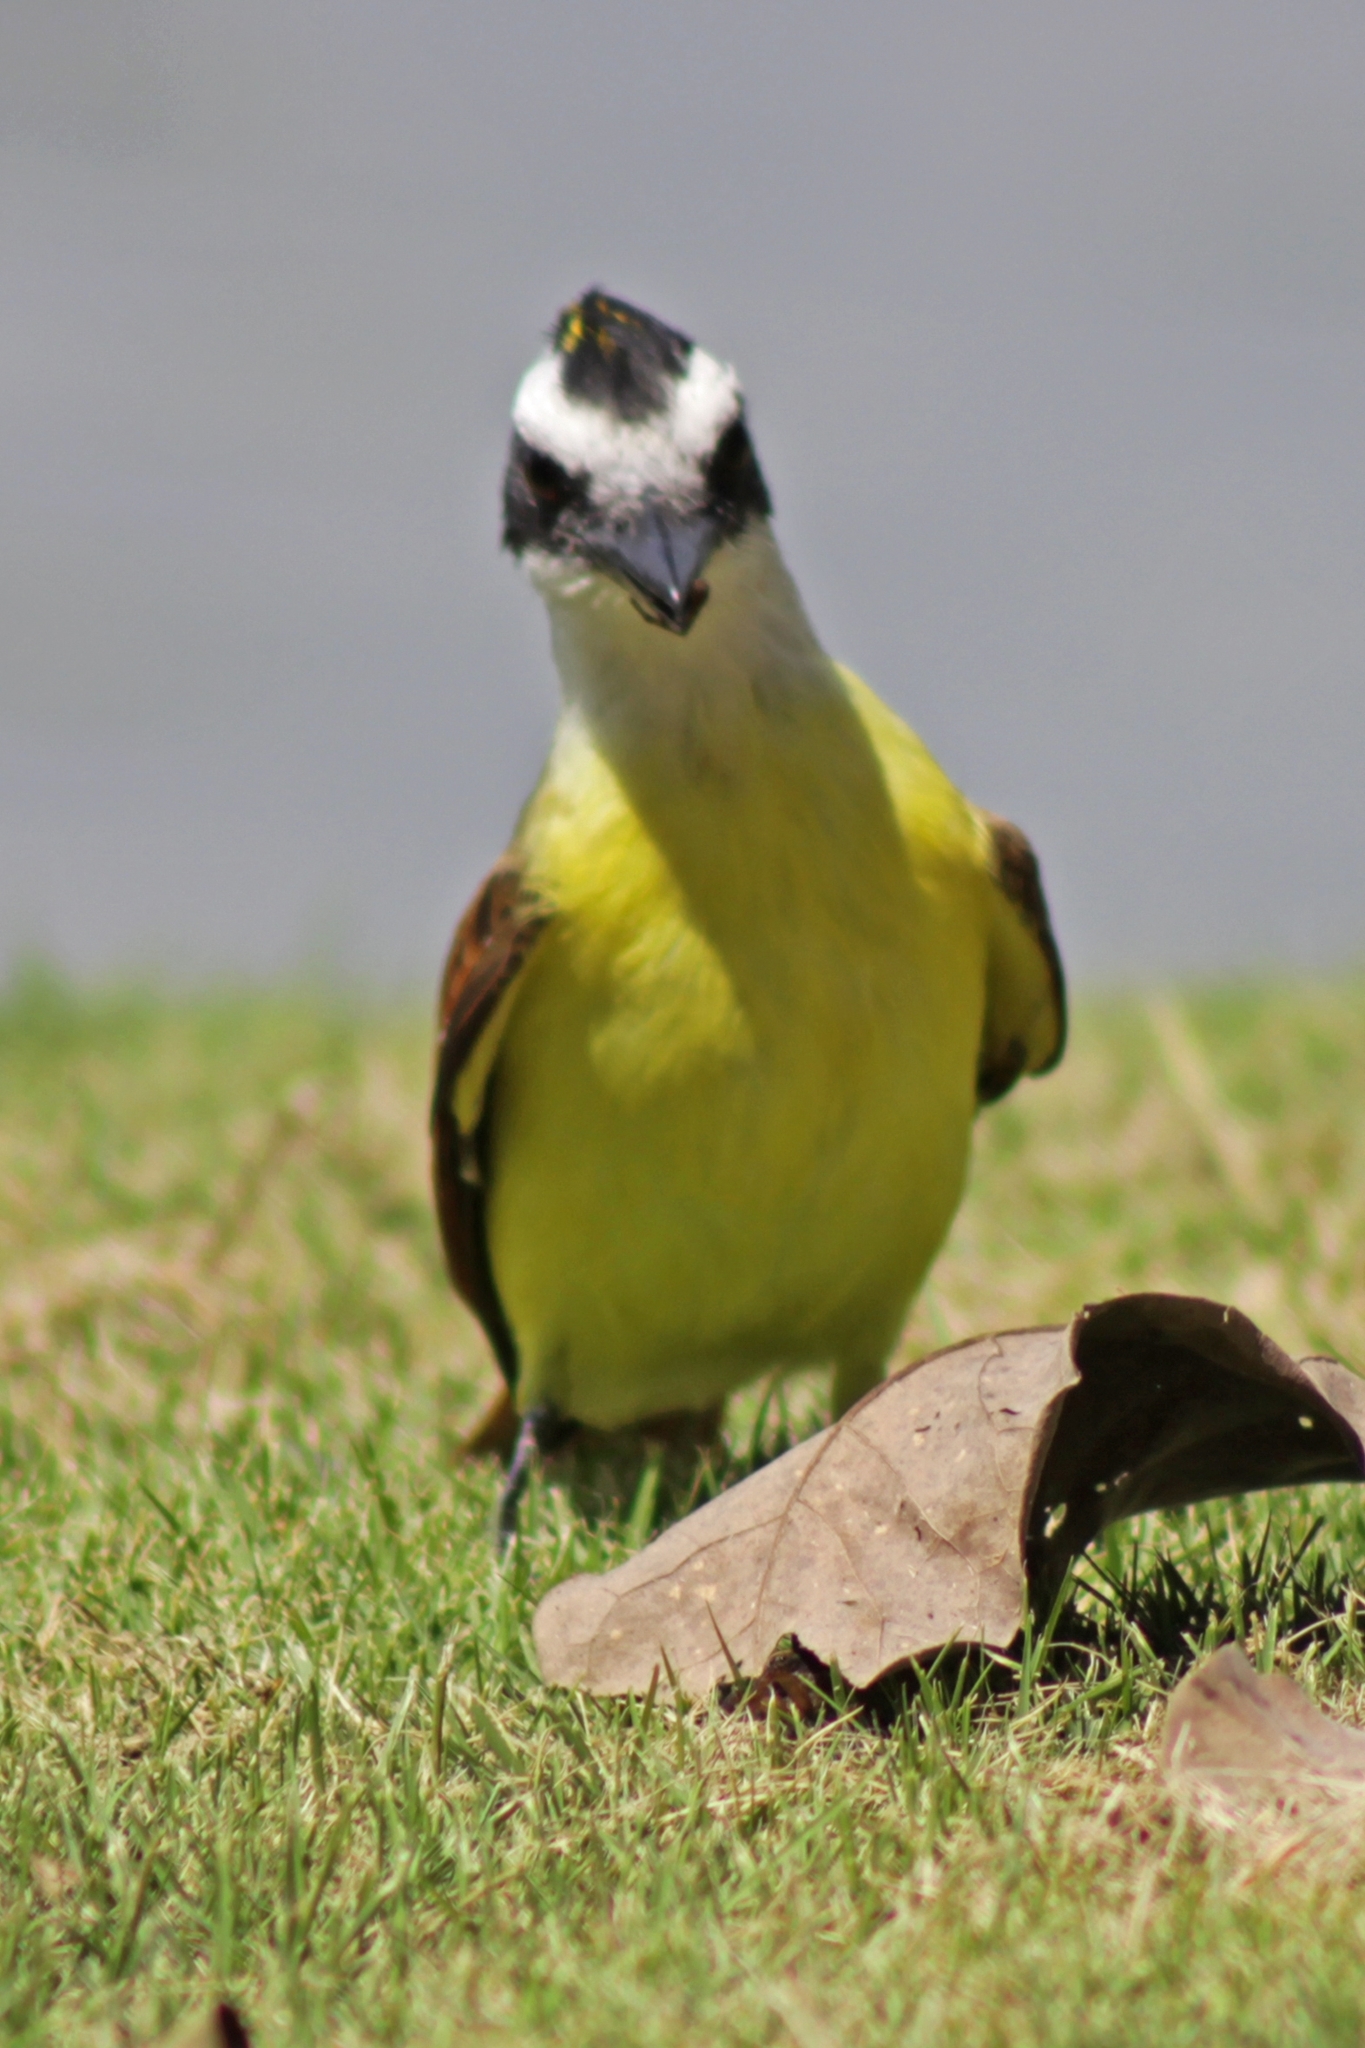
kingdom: Animalia
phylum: Chordata
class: Aves
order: Passeriformes
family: Tyrannidae
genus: Pitangus
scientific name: Pitangus sulphuratus
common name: Great kiskadee
